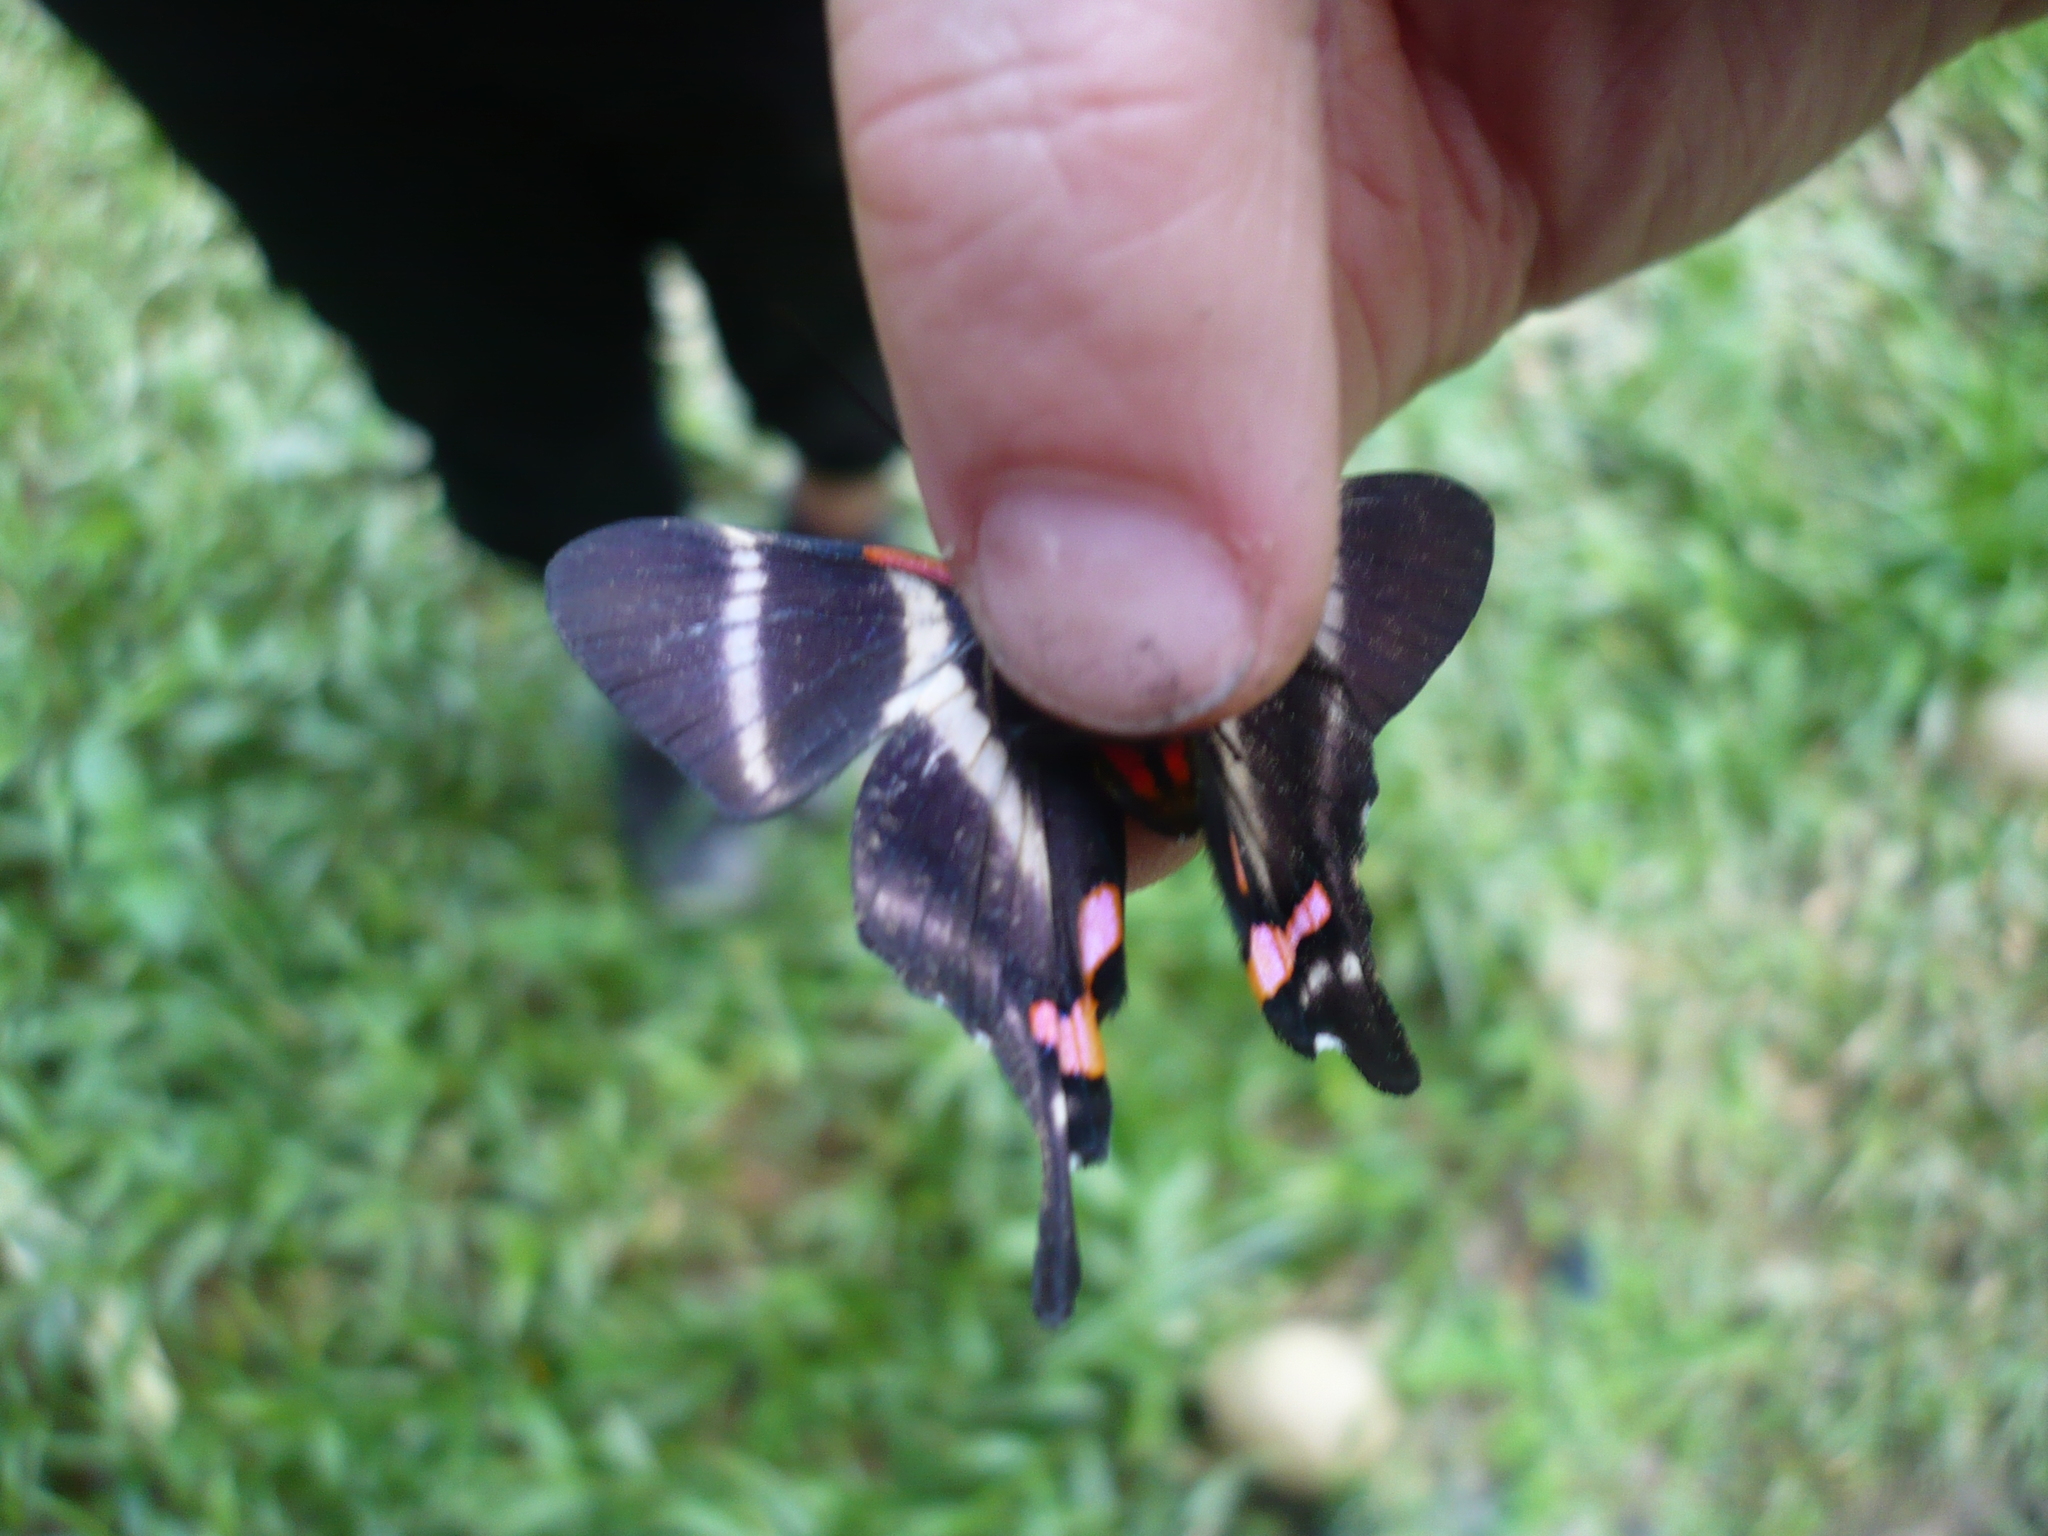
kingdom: Animalia
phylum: Arthropoda
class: Insecta
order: Lepidoptera
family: Riodinidae
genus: Rhetus
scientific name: Rhetus periander
